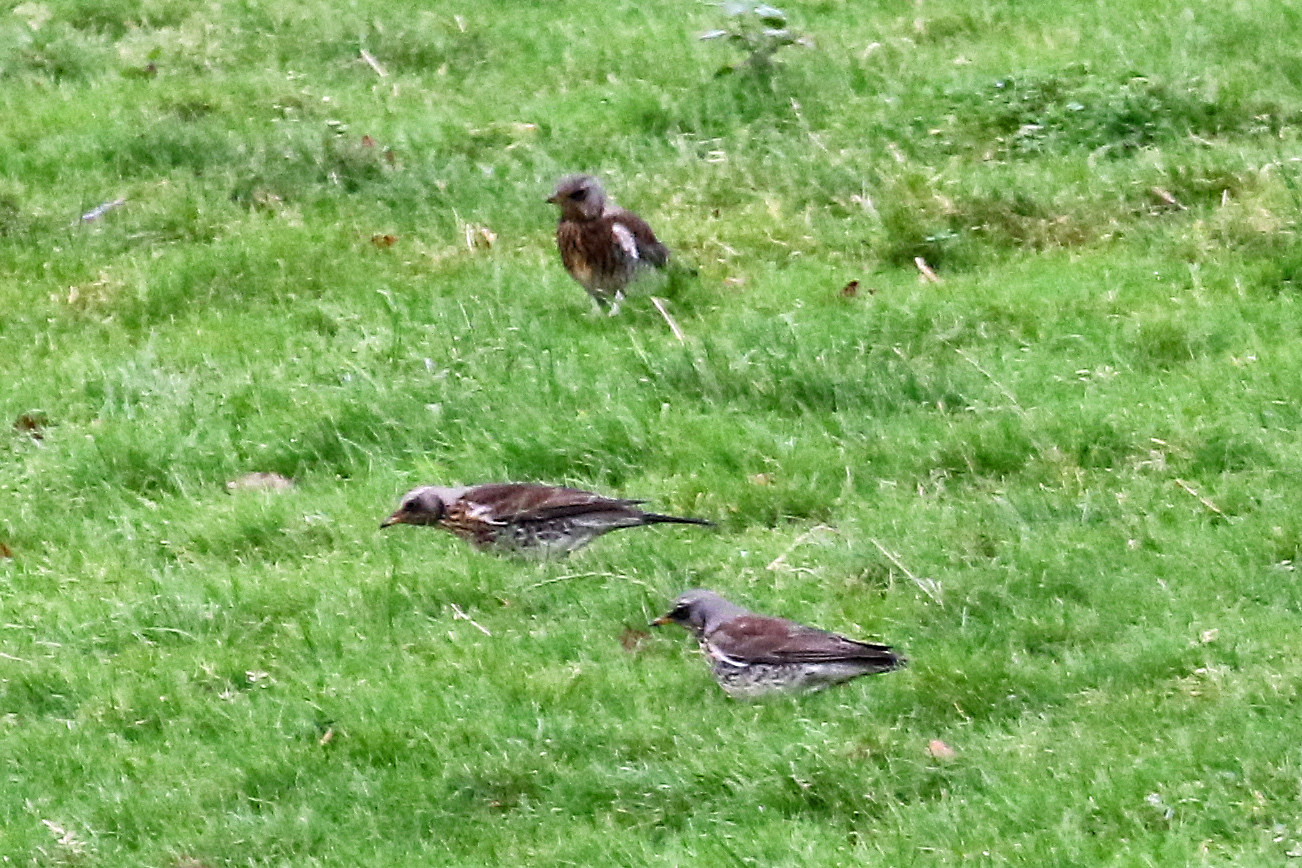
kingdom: Animalia
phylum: Chordata
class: Aves
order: Passeriformes
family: Turdidae
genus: Turdus
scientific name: Turdus pilaris
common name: Fieldfare
